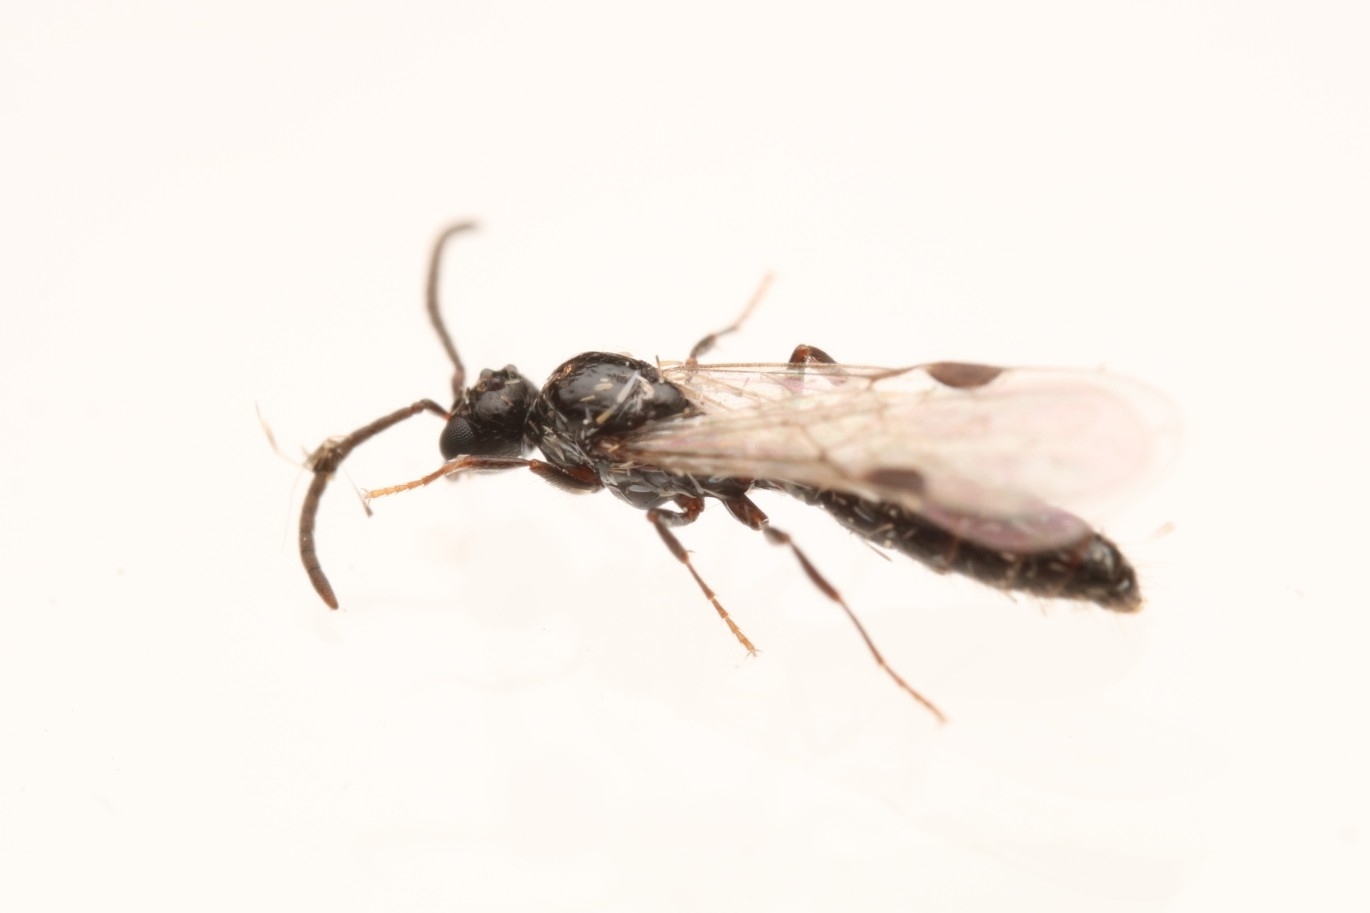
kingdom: Animalia
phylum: Arthropoda
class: Insecta
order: Hymenoptera
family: Formicidae
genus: Acanthostichus
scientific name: Acanthostichus
